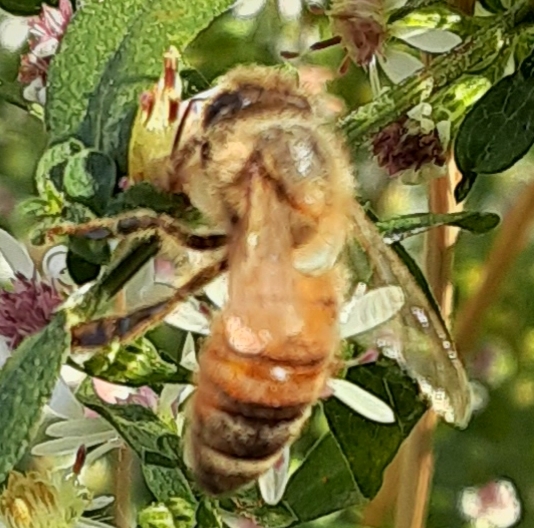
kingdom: Animalia
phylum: Arthropoda
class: Insecta
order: Hymenoptera
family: Apidae
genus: Apis
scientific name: Apis mellifera
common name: Honey bee
